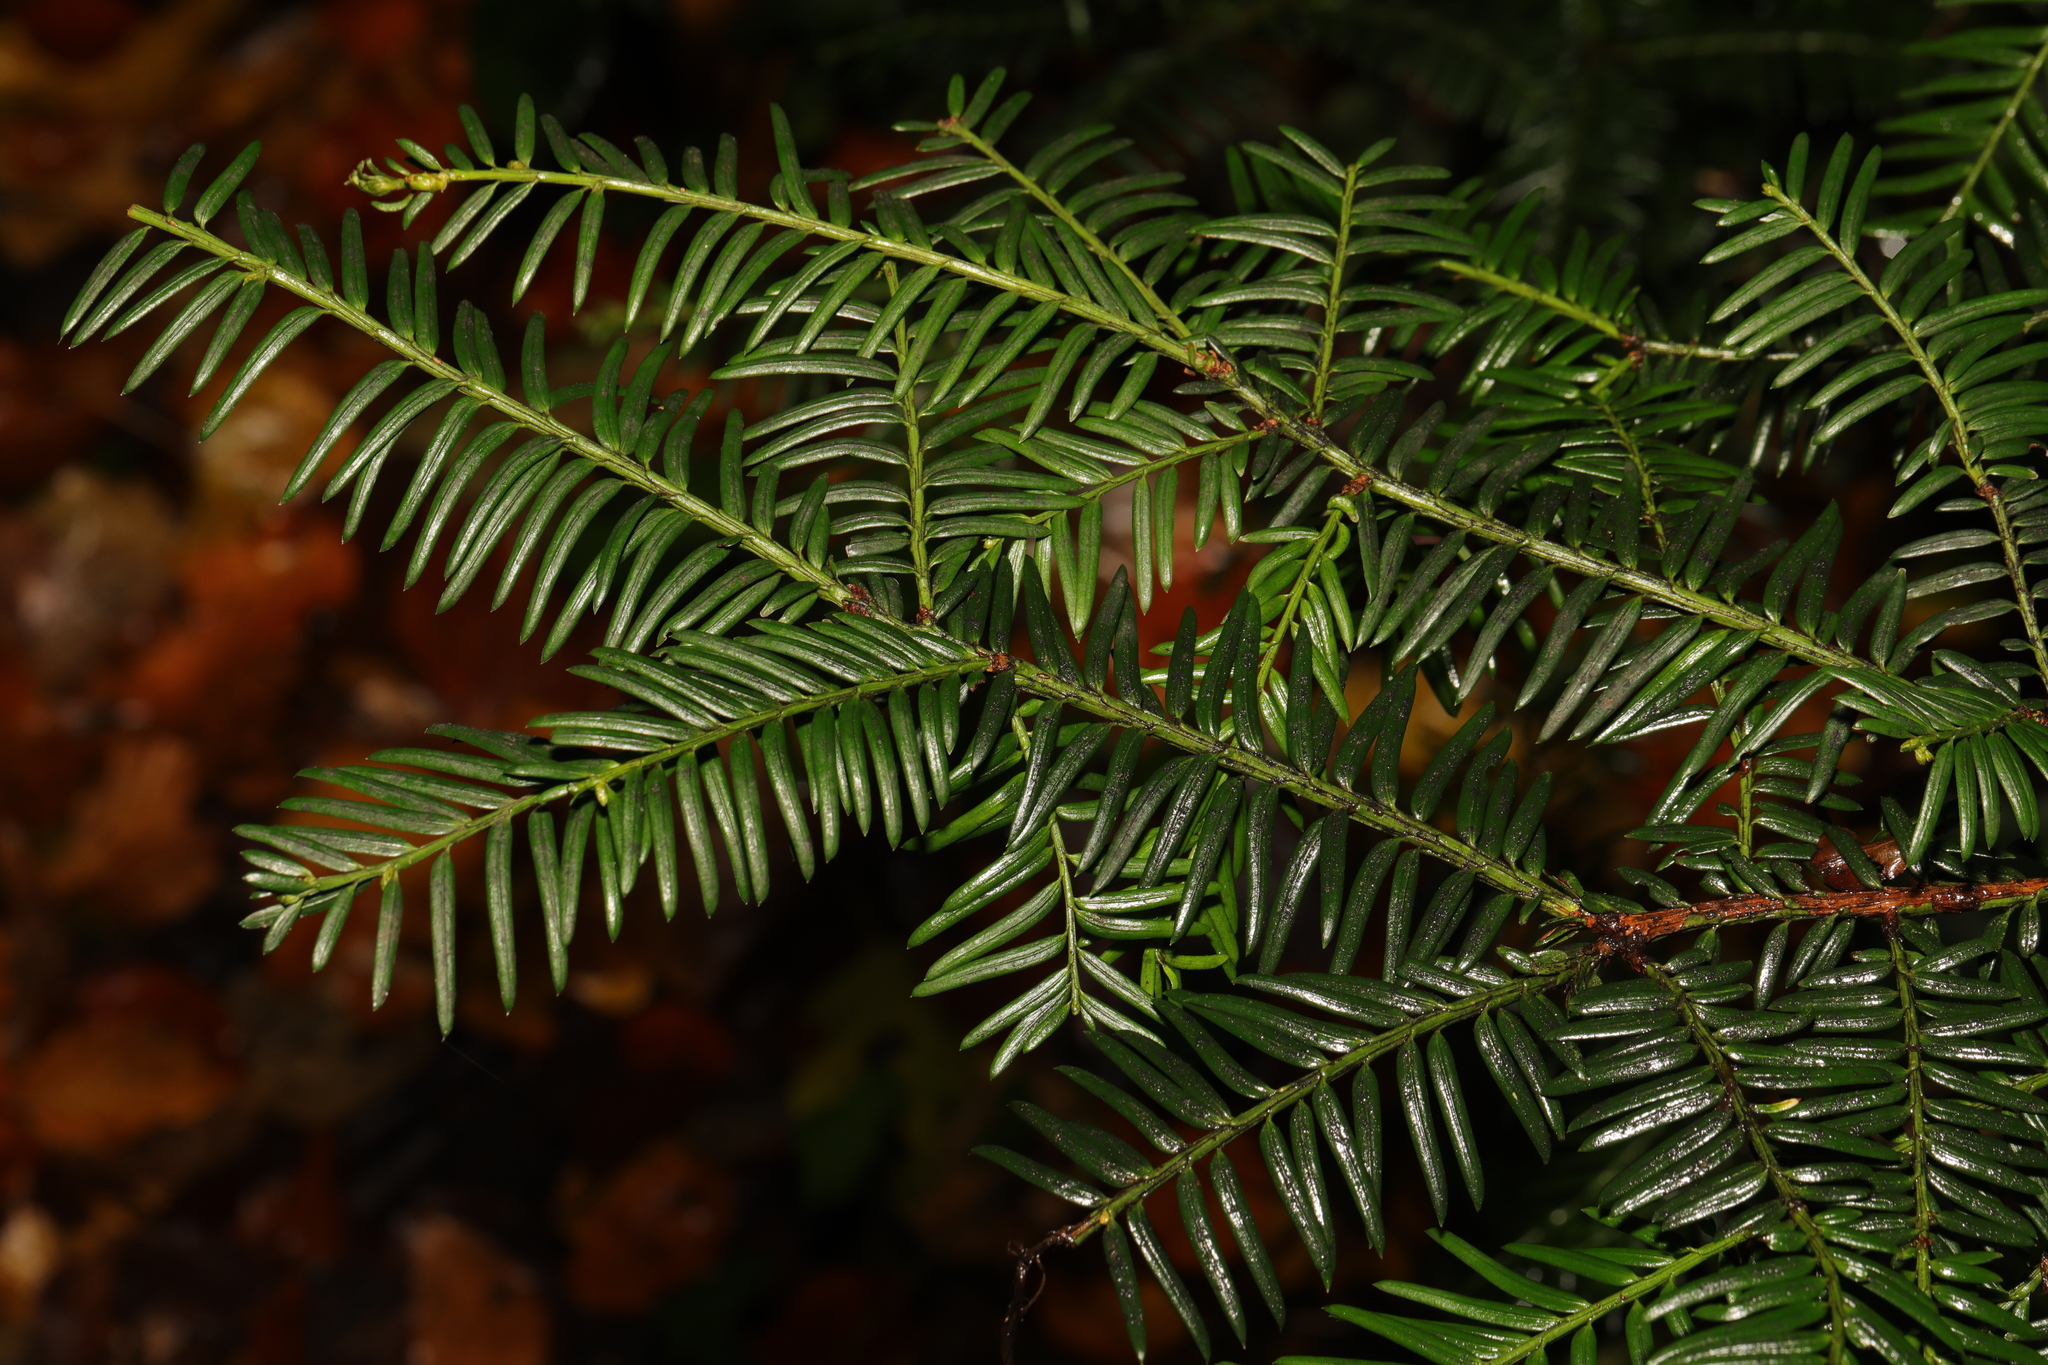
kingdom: Plantae
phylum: Tracheophyta
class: Pinopsida
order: Pinales
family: Taxaceae
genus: Taxus
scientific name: Taxus baccata
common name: Yew
